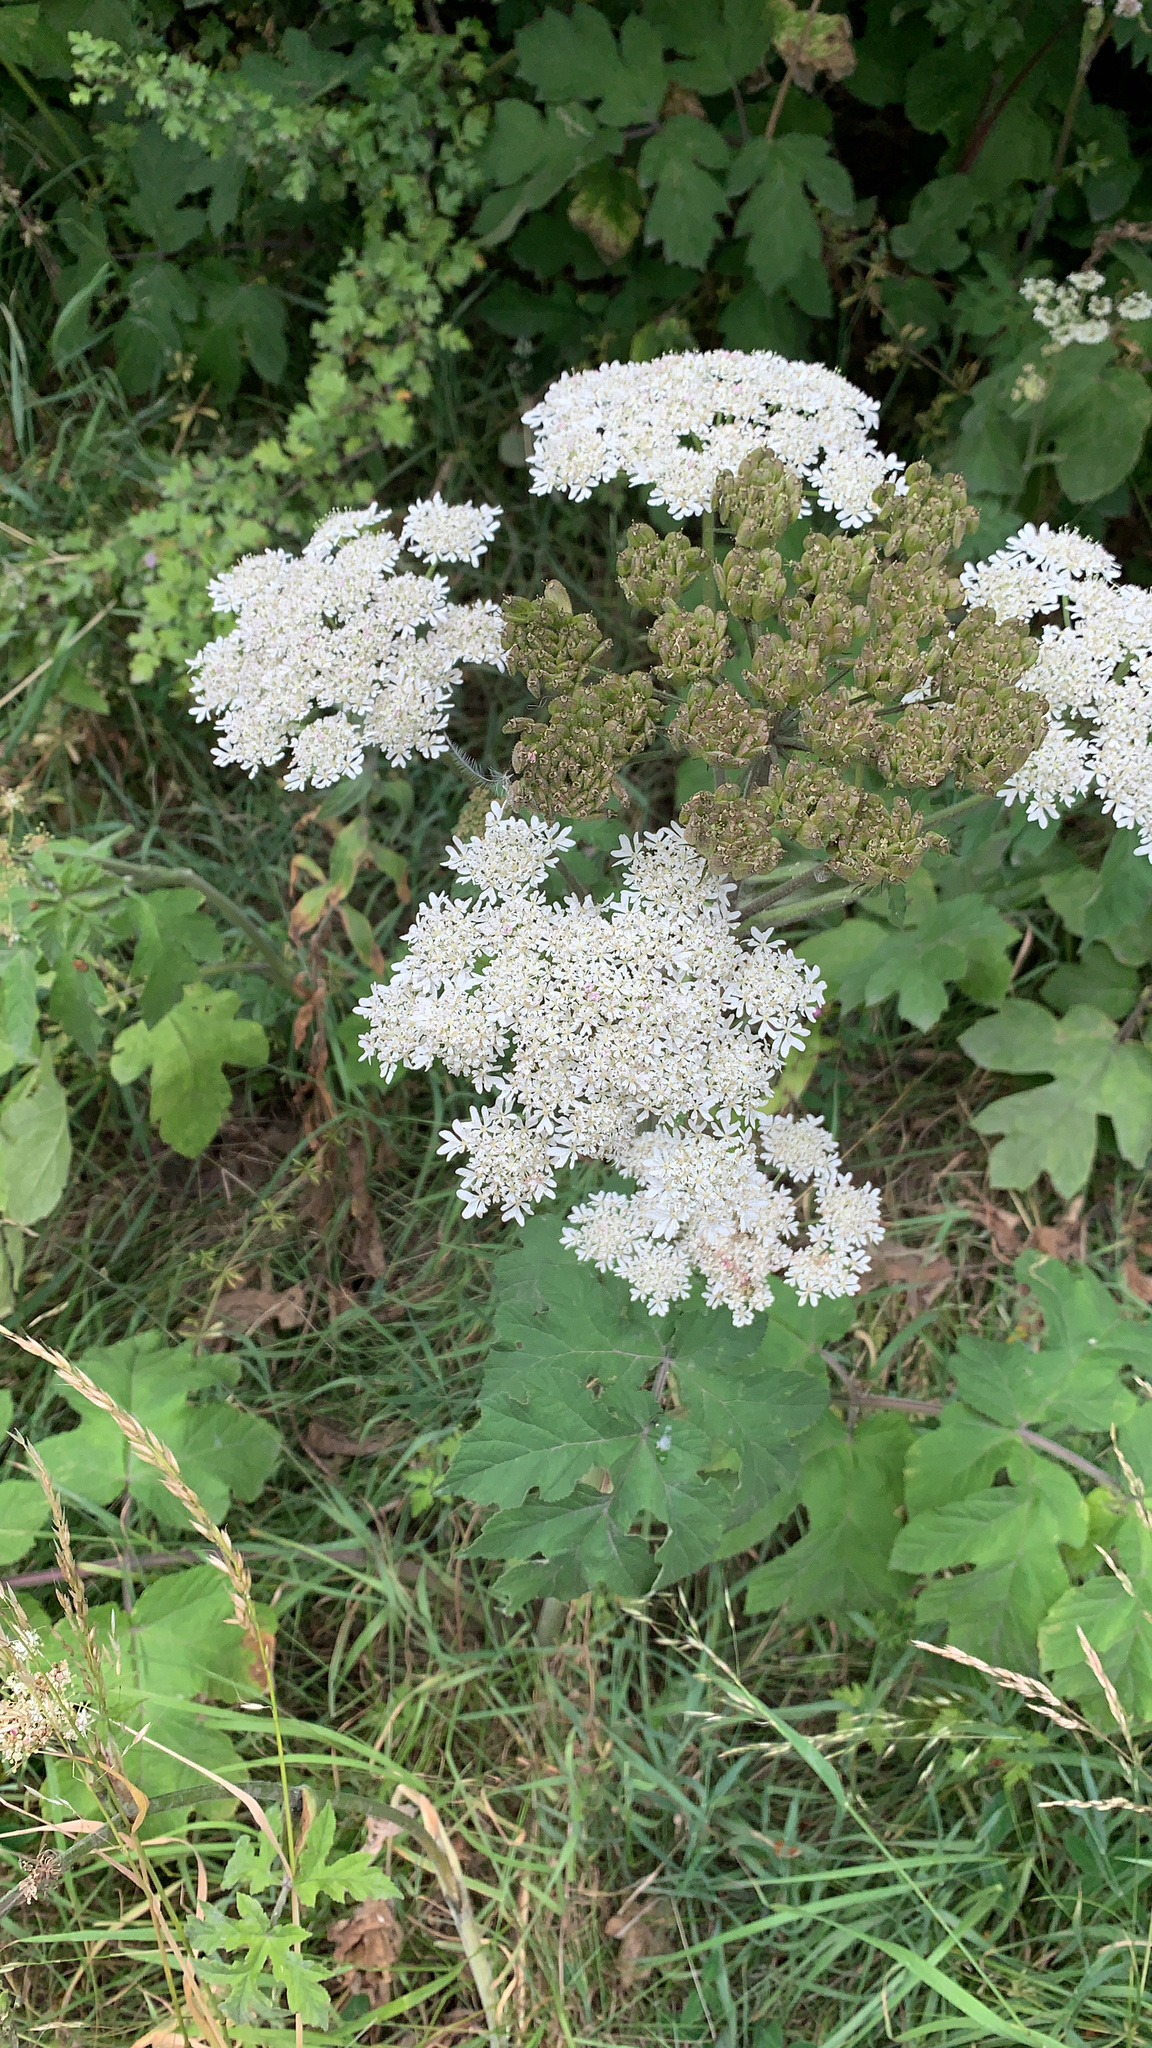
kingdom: Plantae
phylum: Tracheophyta
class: Magnoliopsida
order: Apiales
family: Apiaceae
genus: Heracleum
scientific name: Heracleum sphondylium
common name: Hogweed
